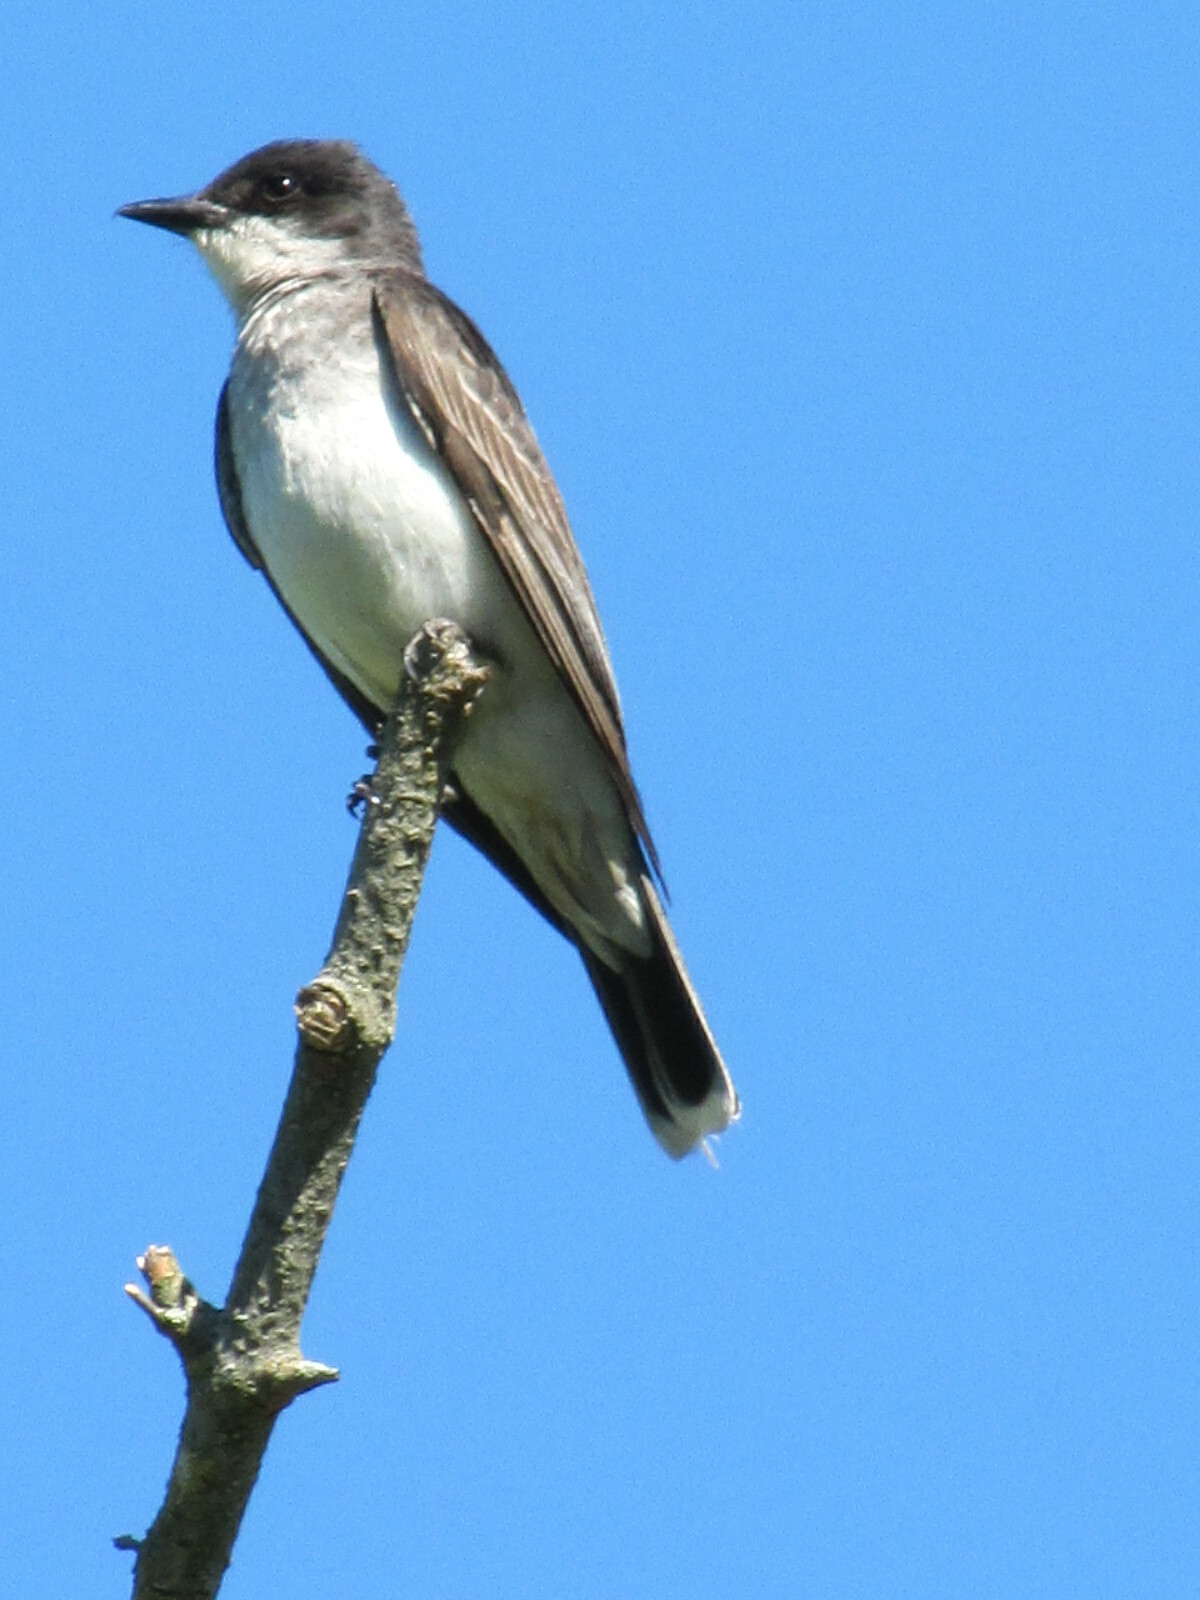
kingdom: Animalia
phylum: Chordata
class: Aves
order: Passeriformes
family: Tyrannidae
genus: Tyrannus
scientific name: Tyrannus tyrannus
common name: Eastern kingbird
